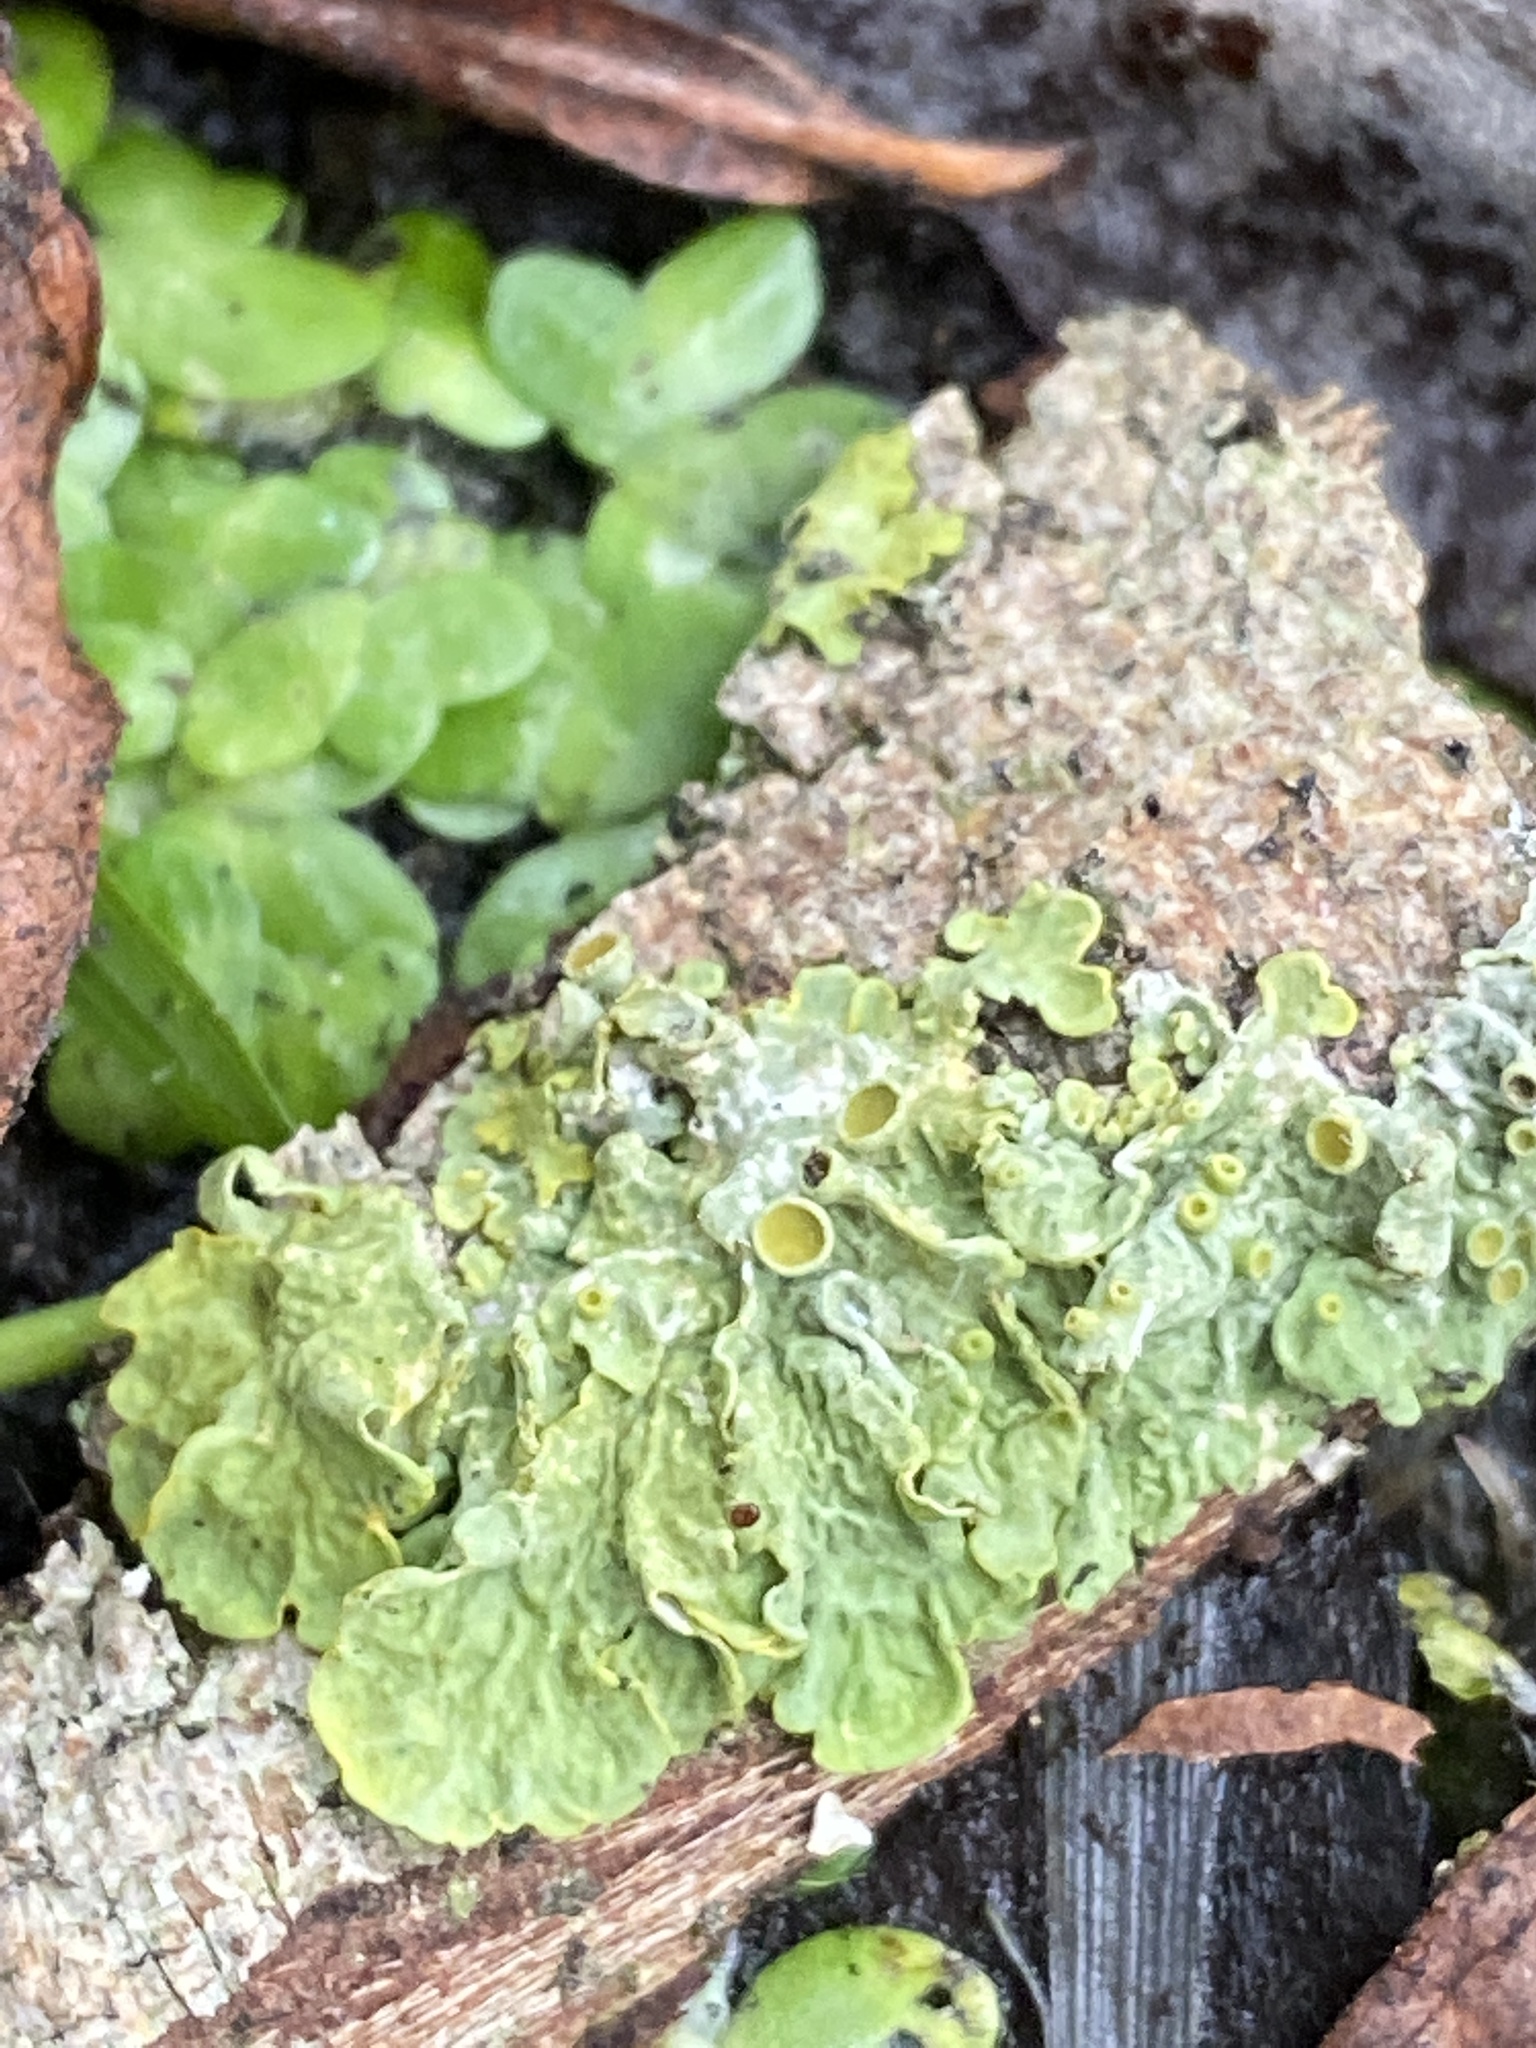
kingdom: Fungi
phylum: Ascomycota
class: Lecanoromycetes
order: Teloschistales
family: Teloschistaceae
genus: Xanthoria
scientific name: Xanthoria parietina
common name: Common orange lichen
